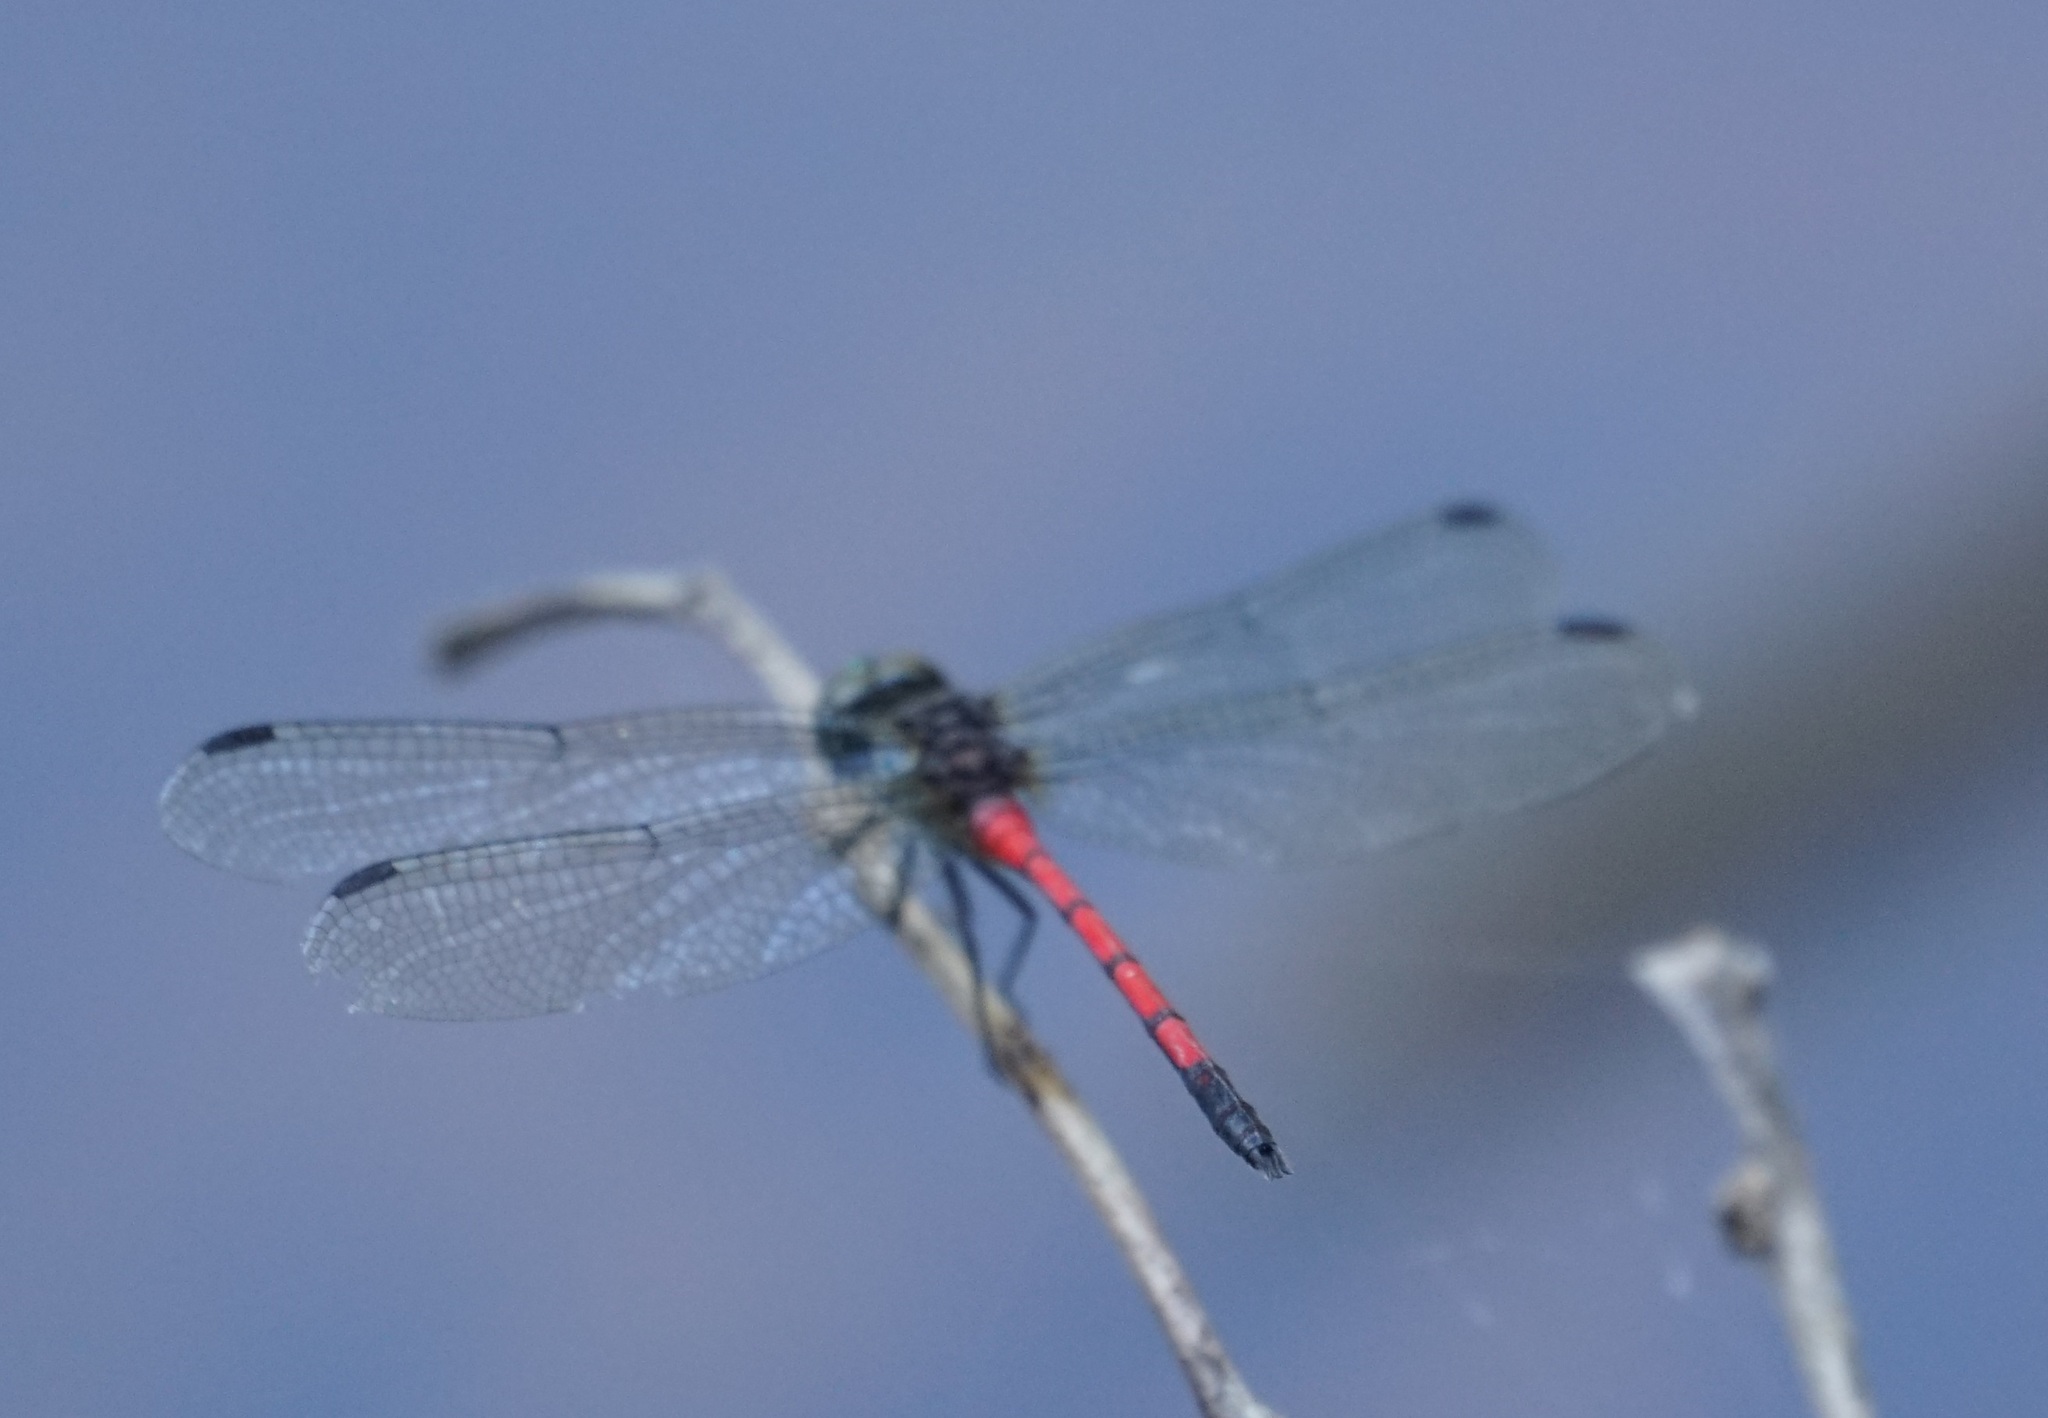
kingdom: Animalia
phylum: Arthropoda
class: Insecta
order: Odonata
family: Libellulidae
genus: Agrionoptera
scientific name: Agrionoptera insignis
